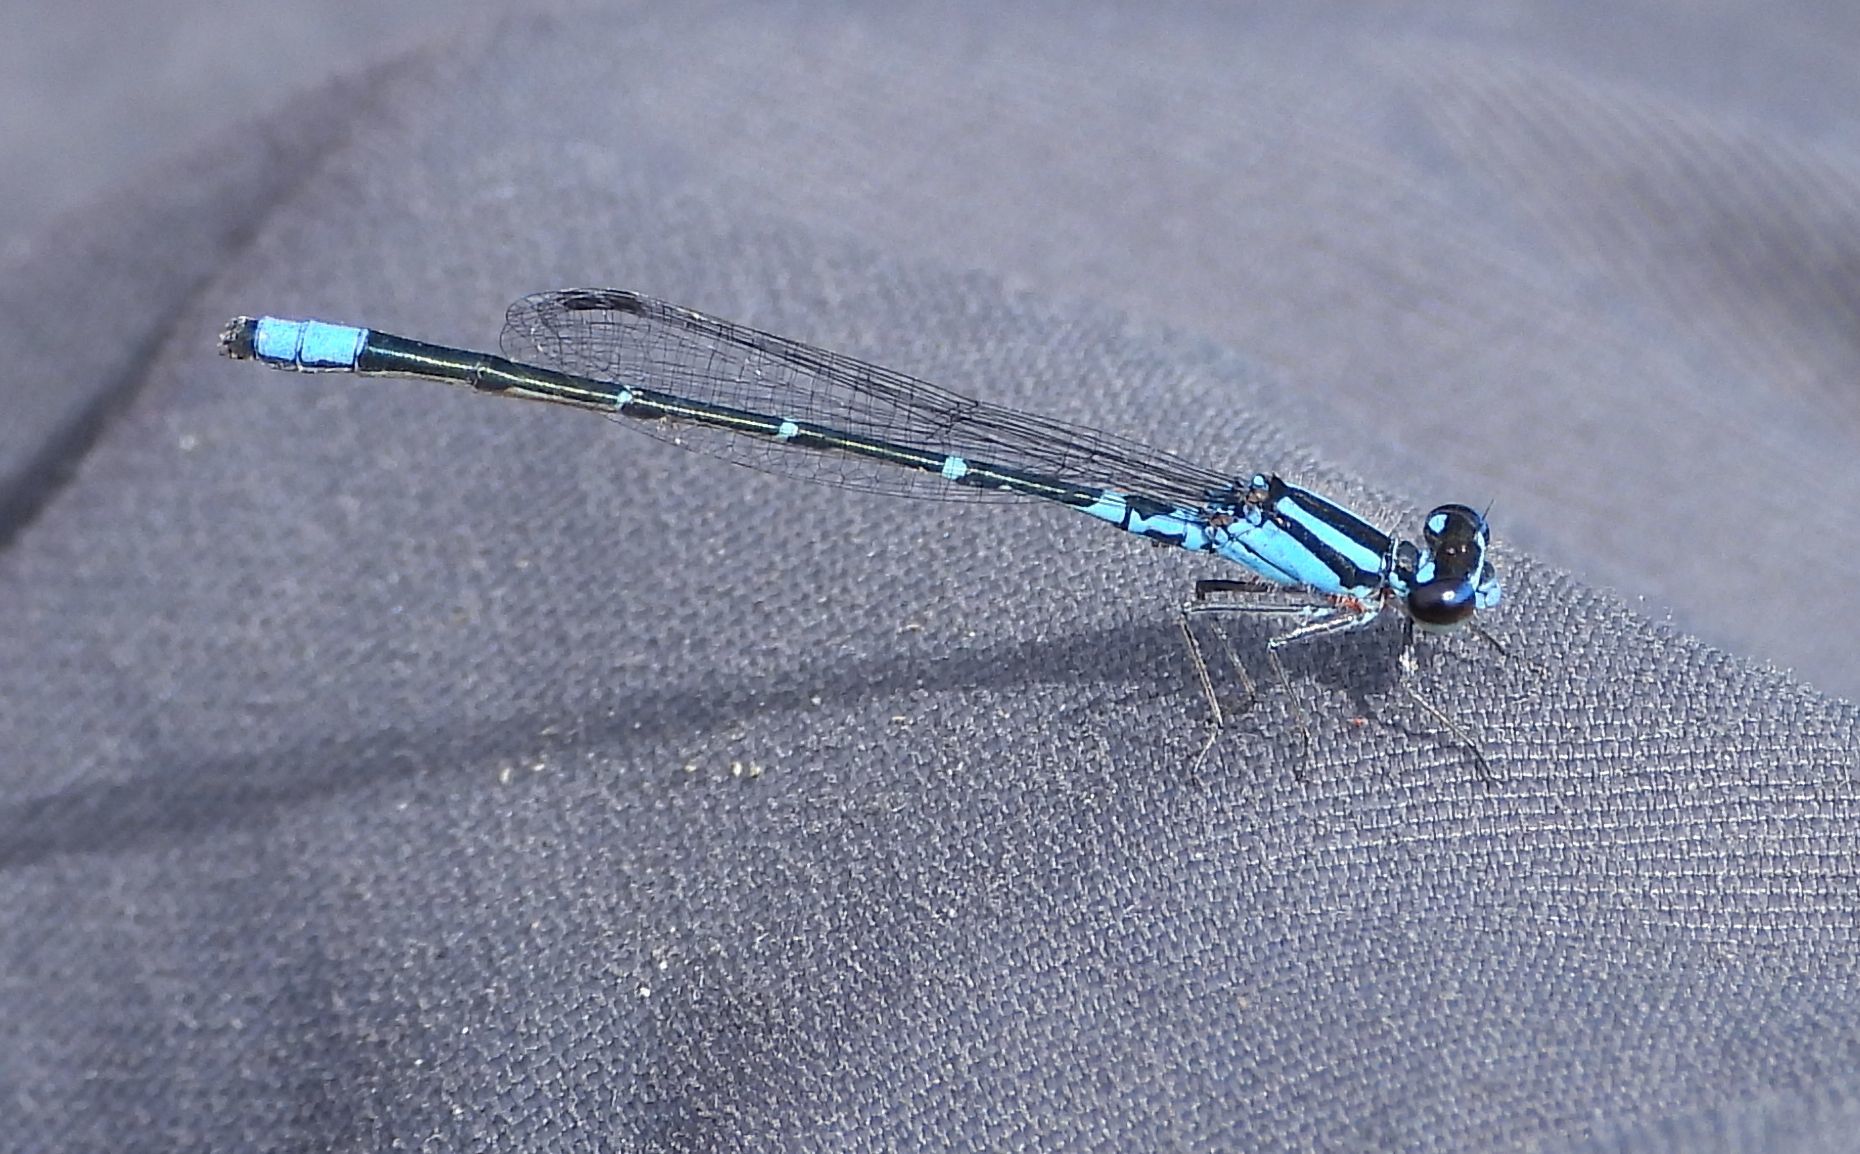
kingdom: Animalia
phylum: Arthropoda
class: Insecta
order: Odonata
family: Coenagrionidae
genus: Enallagma
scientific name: Enallagma geminatum
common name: Skimming bluet
